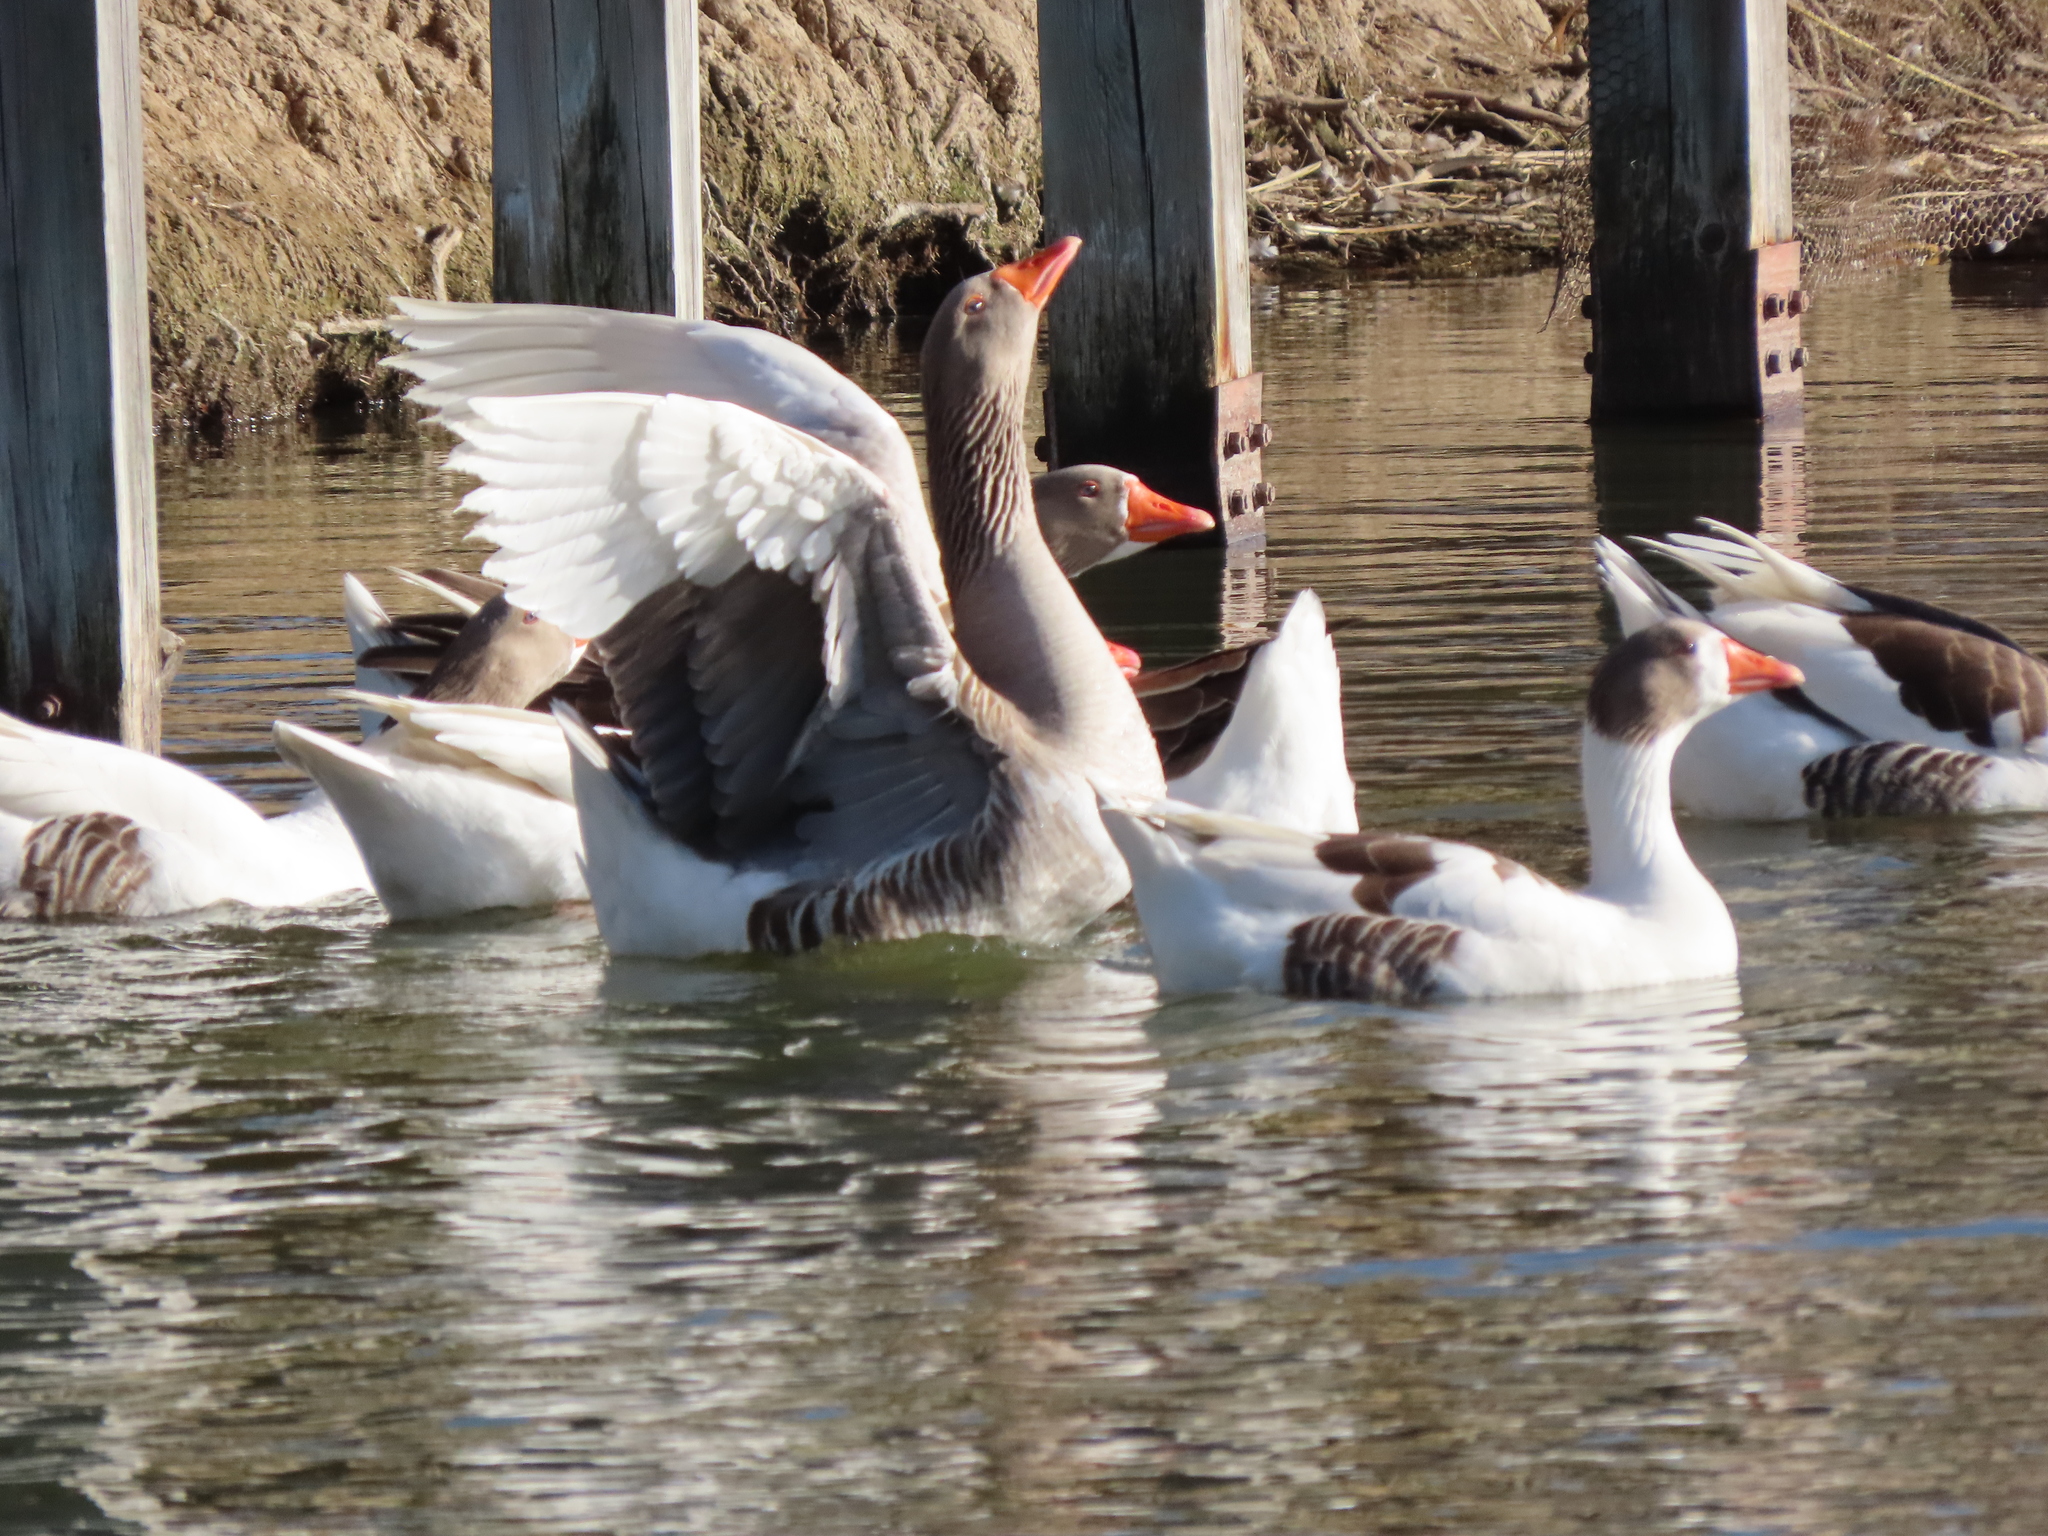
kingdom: Animalia
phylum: Chordata
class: Aves
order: Anseriformes
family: Anatidae
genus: Anser
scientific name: Anser anser
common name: Greylag goose
